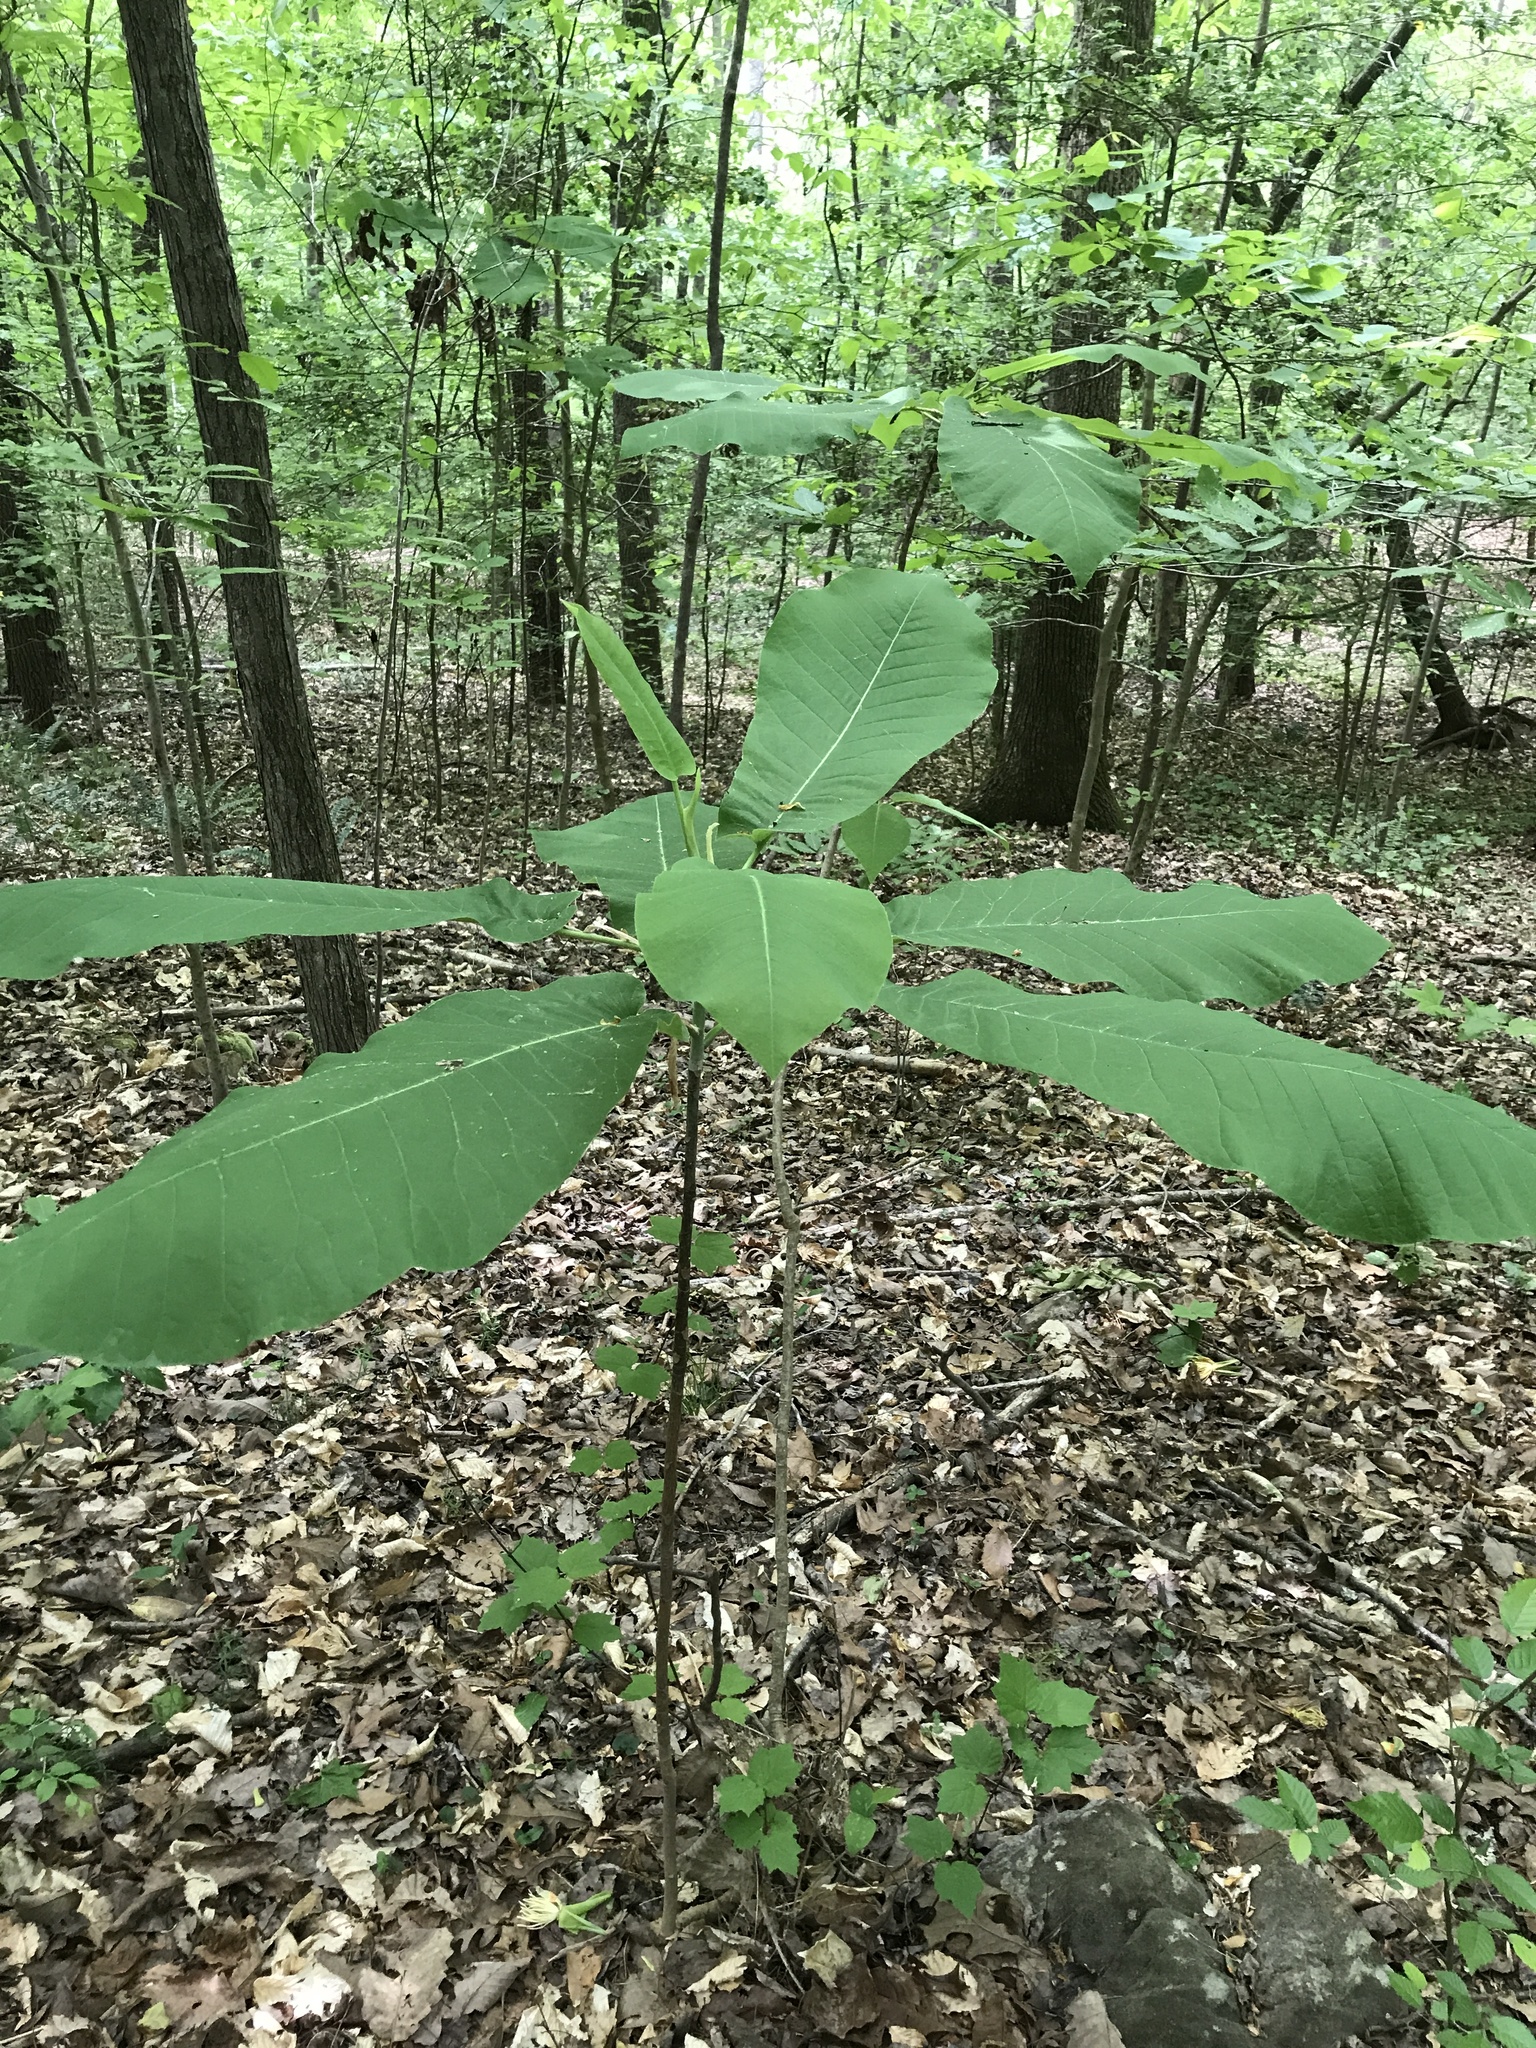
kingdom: Plantae
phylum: Tracheophyta
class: Magnoliopsida
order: Magnoliales
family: Magnoliaceae
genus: Magnolia
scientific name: Magnolia macrophylla
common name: Big-leaf magnolia
